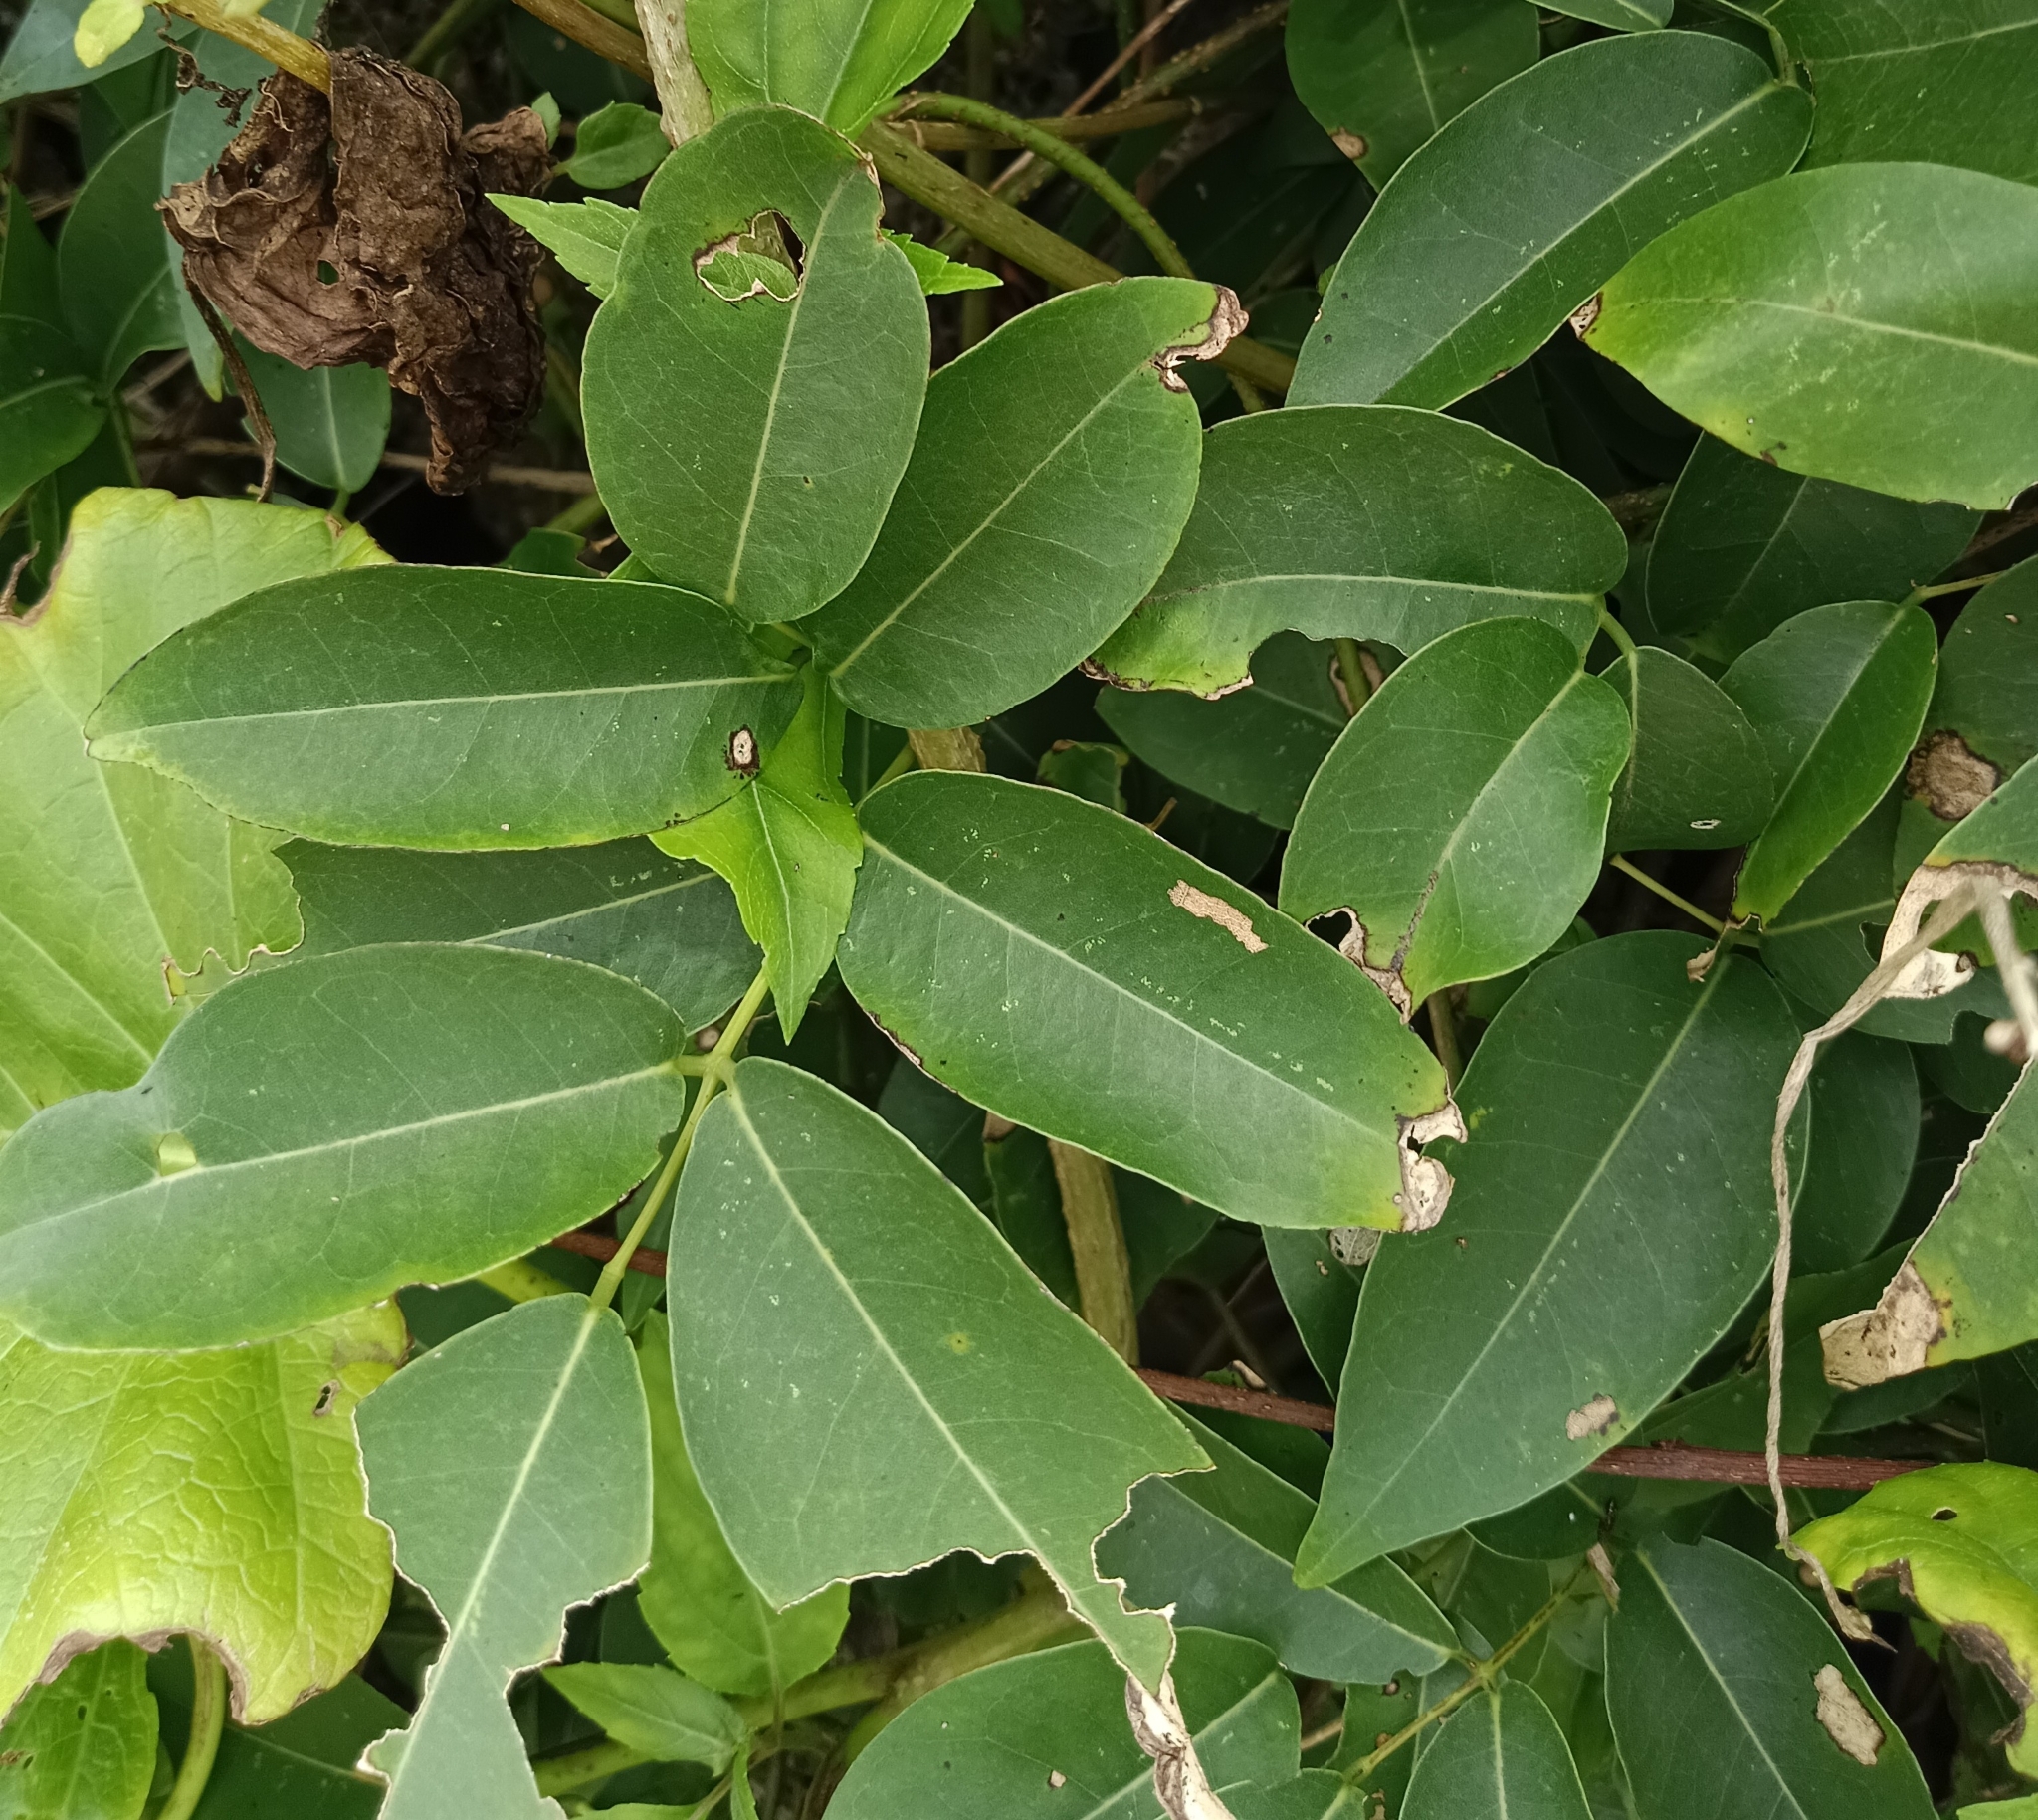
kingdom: Plantae
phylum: Tracheophyta
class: Magnoliopsida
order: Fabales
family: Fabaceae
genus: Derris
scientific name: Derris trifoliata
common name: Three-leaf derris
